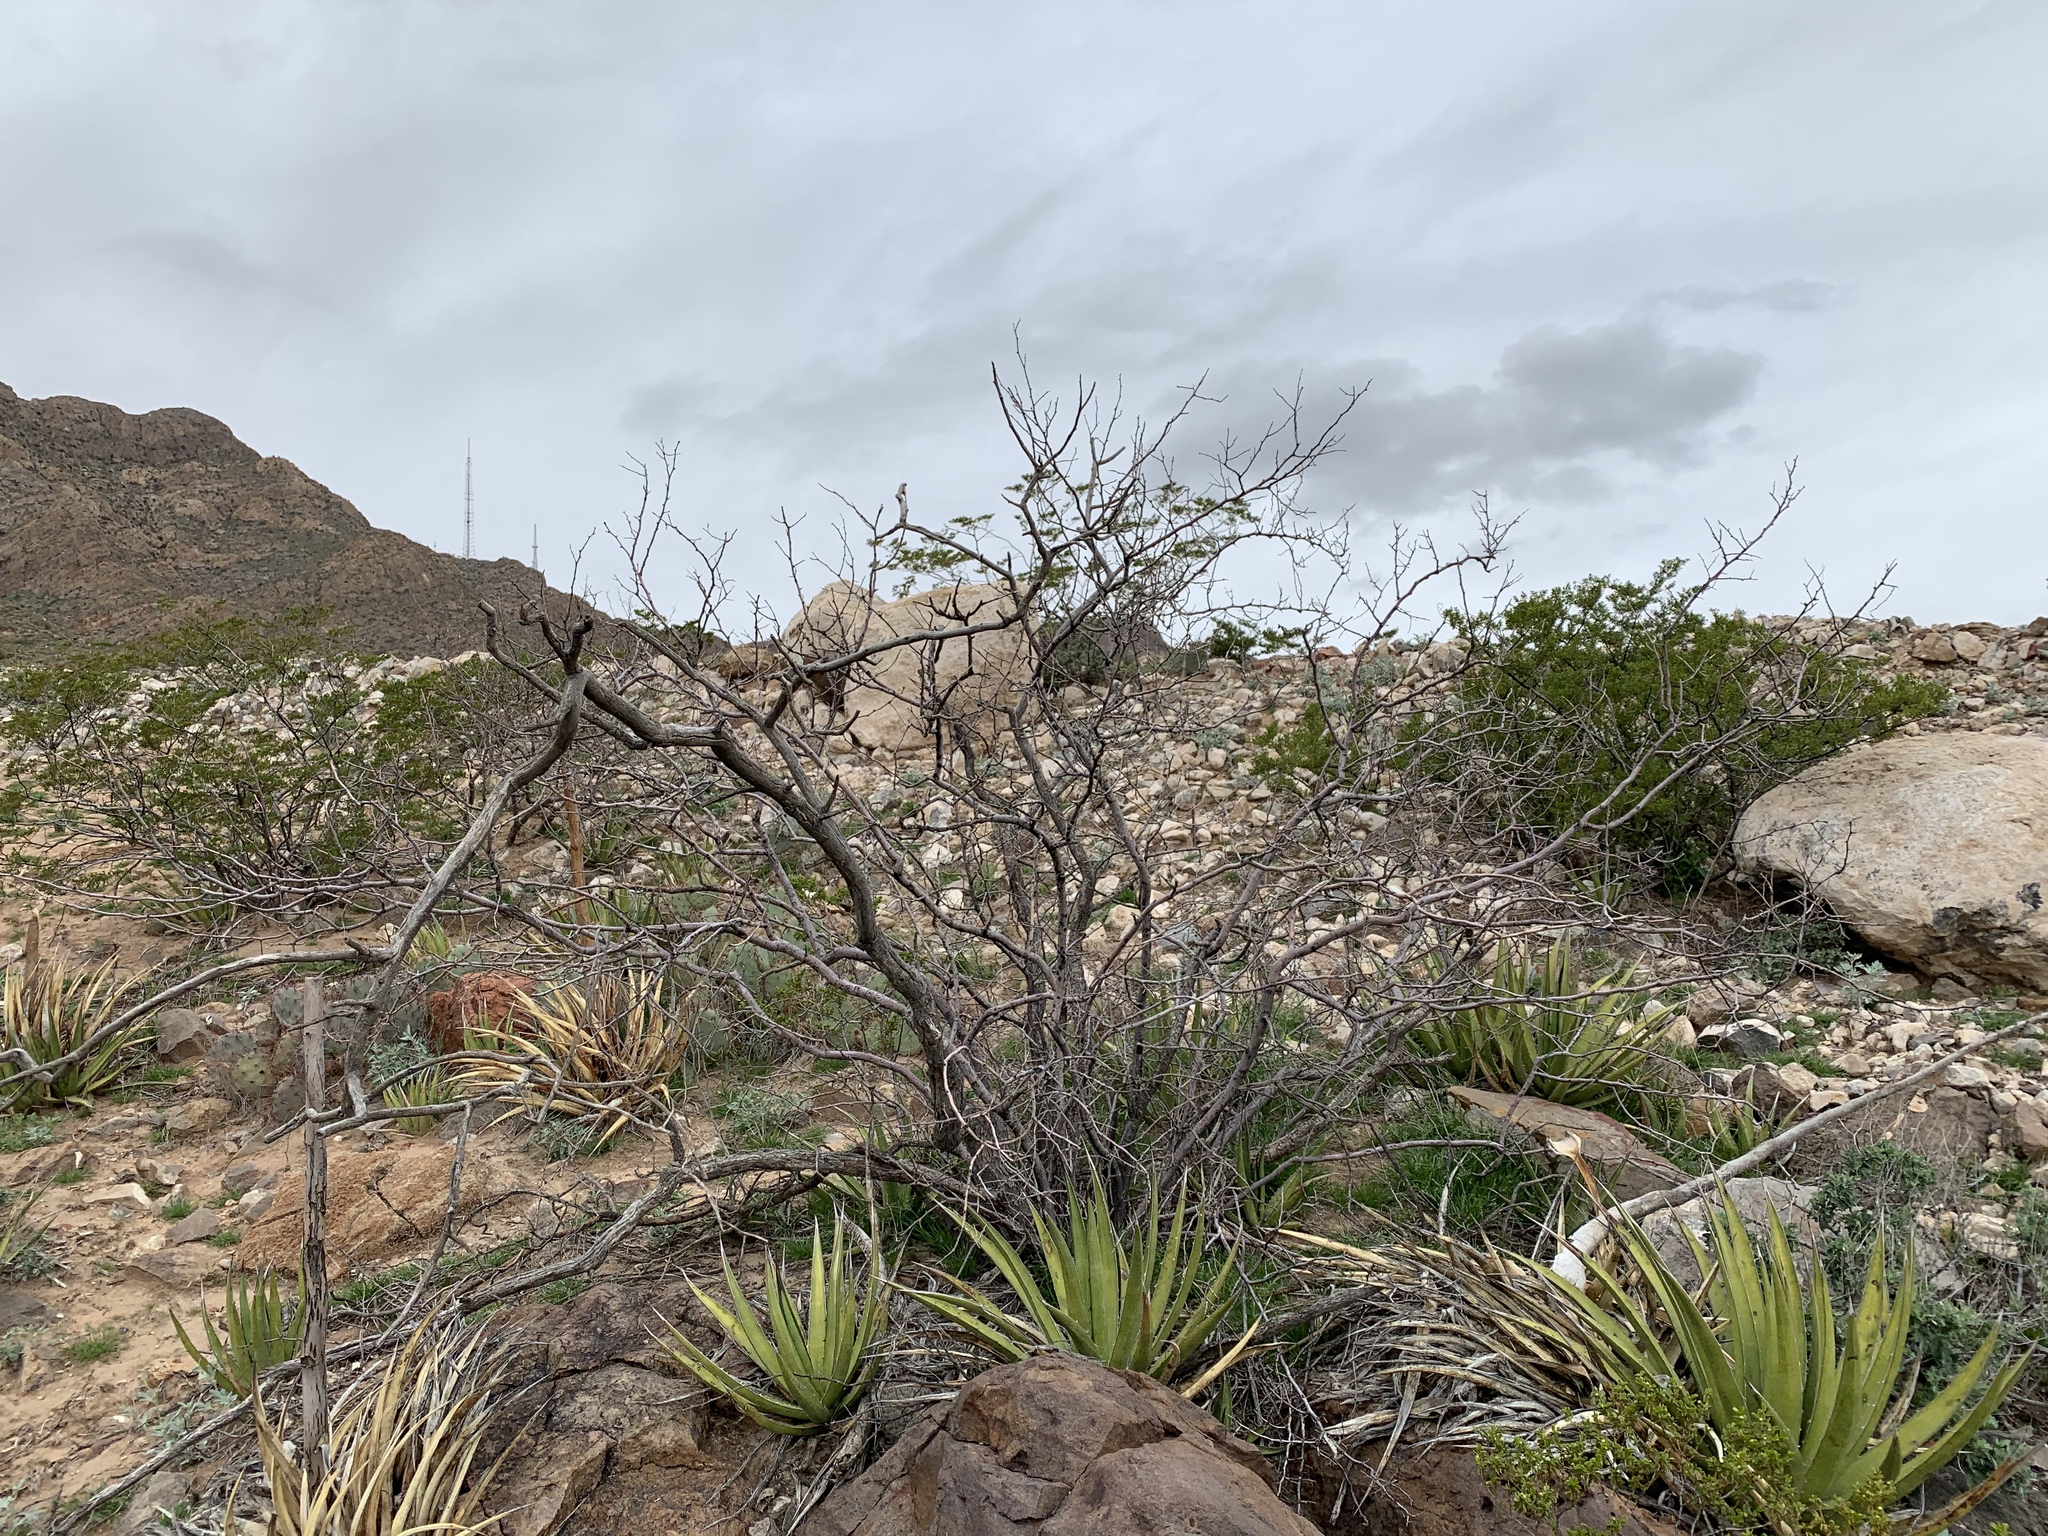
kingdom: Plantae
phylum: Tracheophyta
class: Liliopsida
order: Asparagales
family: Asparagaceae
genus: Agave
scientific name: Agave lechuguilla
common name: Lecheguilla agave
